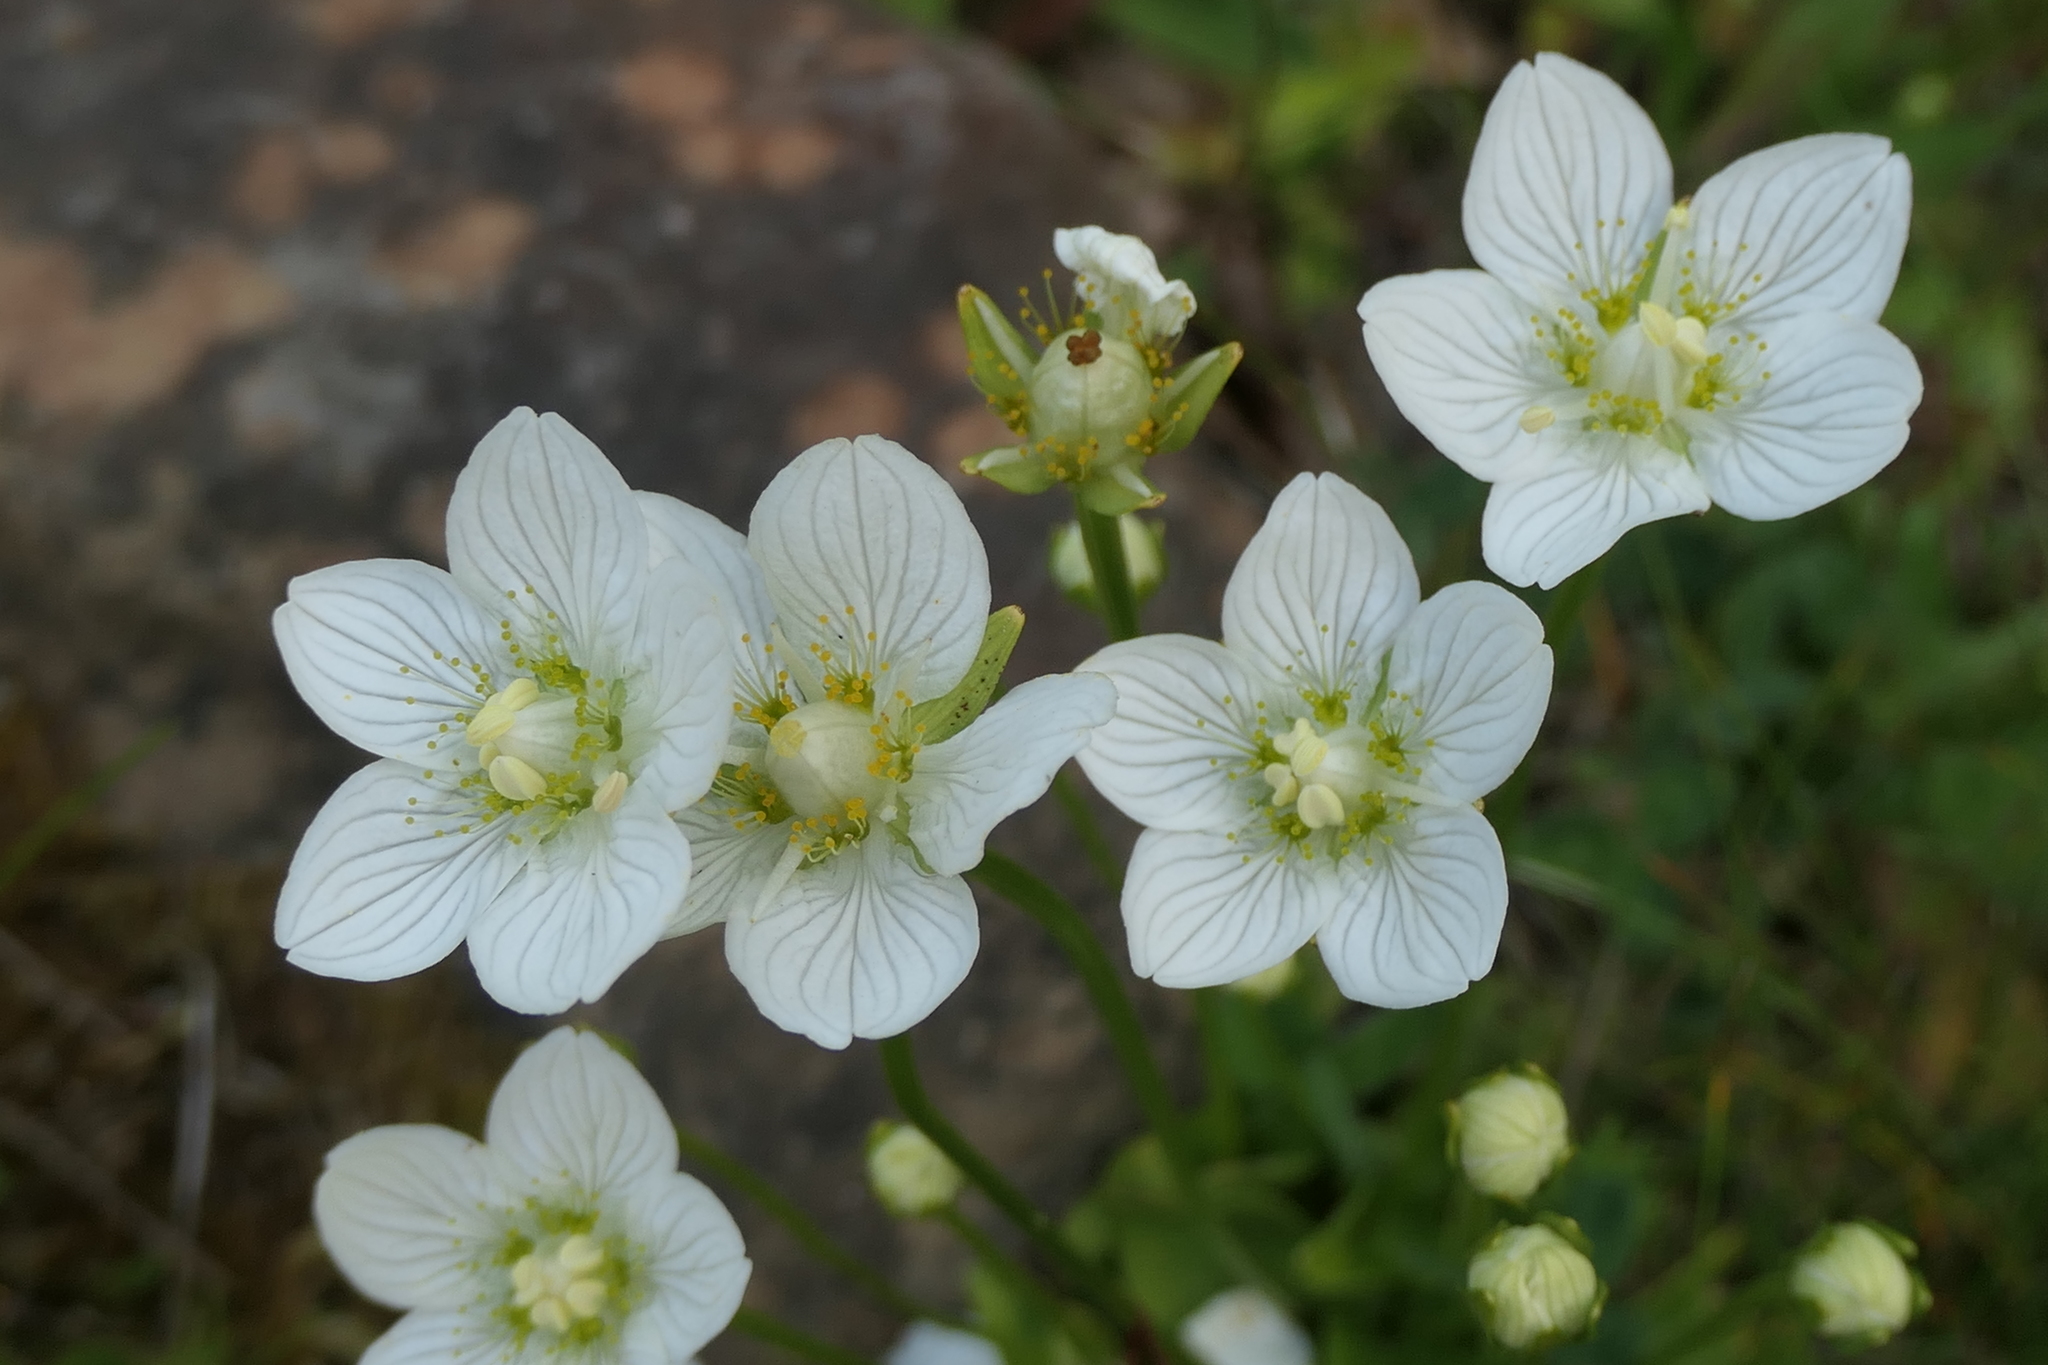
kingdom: Plantae
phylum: Tracheophyta
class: Magnoliopsida
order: Celastrales
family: Parnassiaceae
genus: Parnassia
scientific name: Parnassia palustris
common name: Grass-of-parnassus
